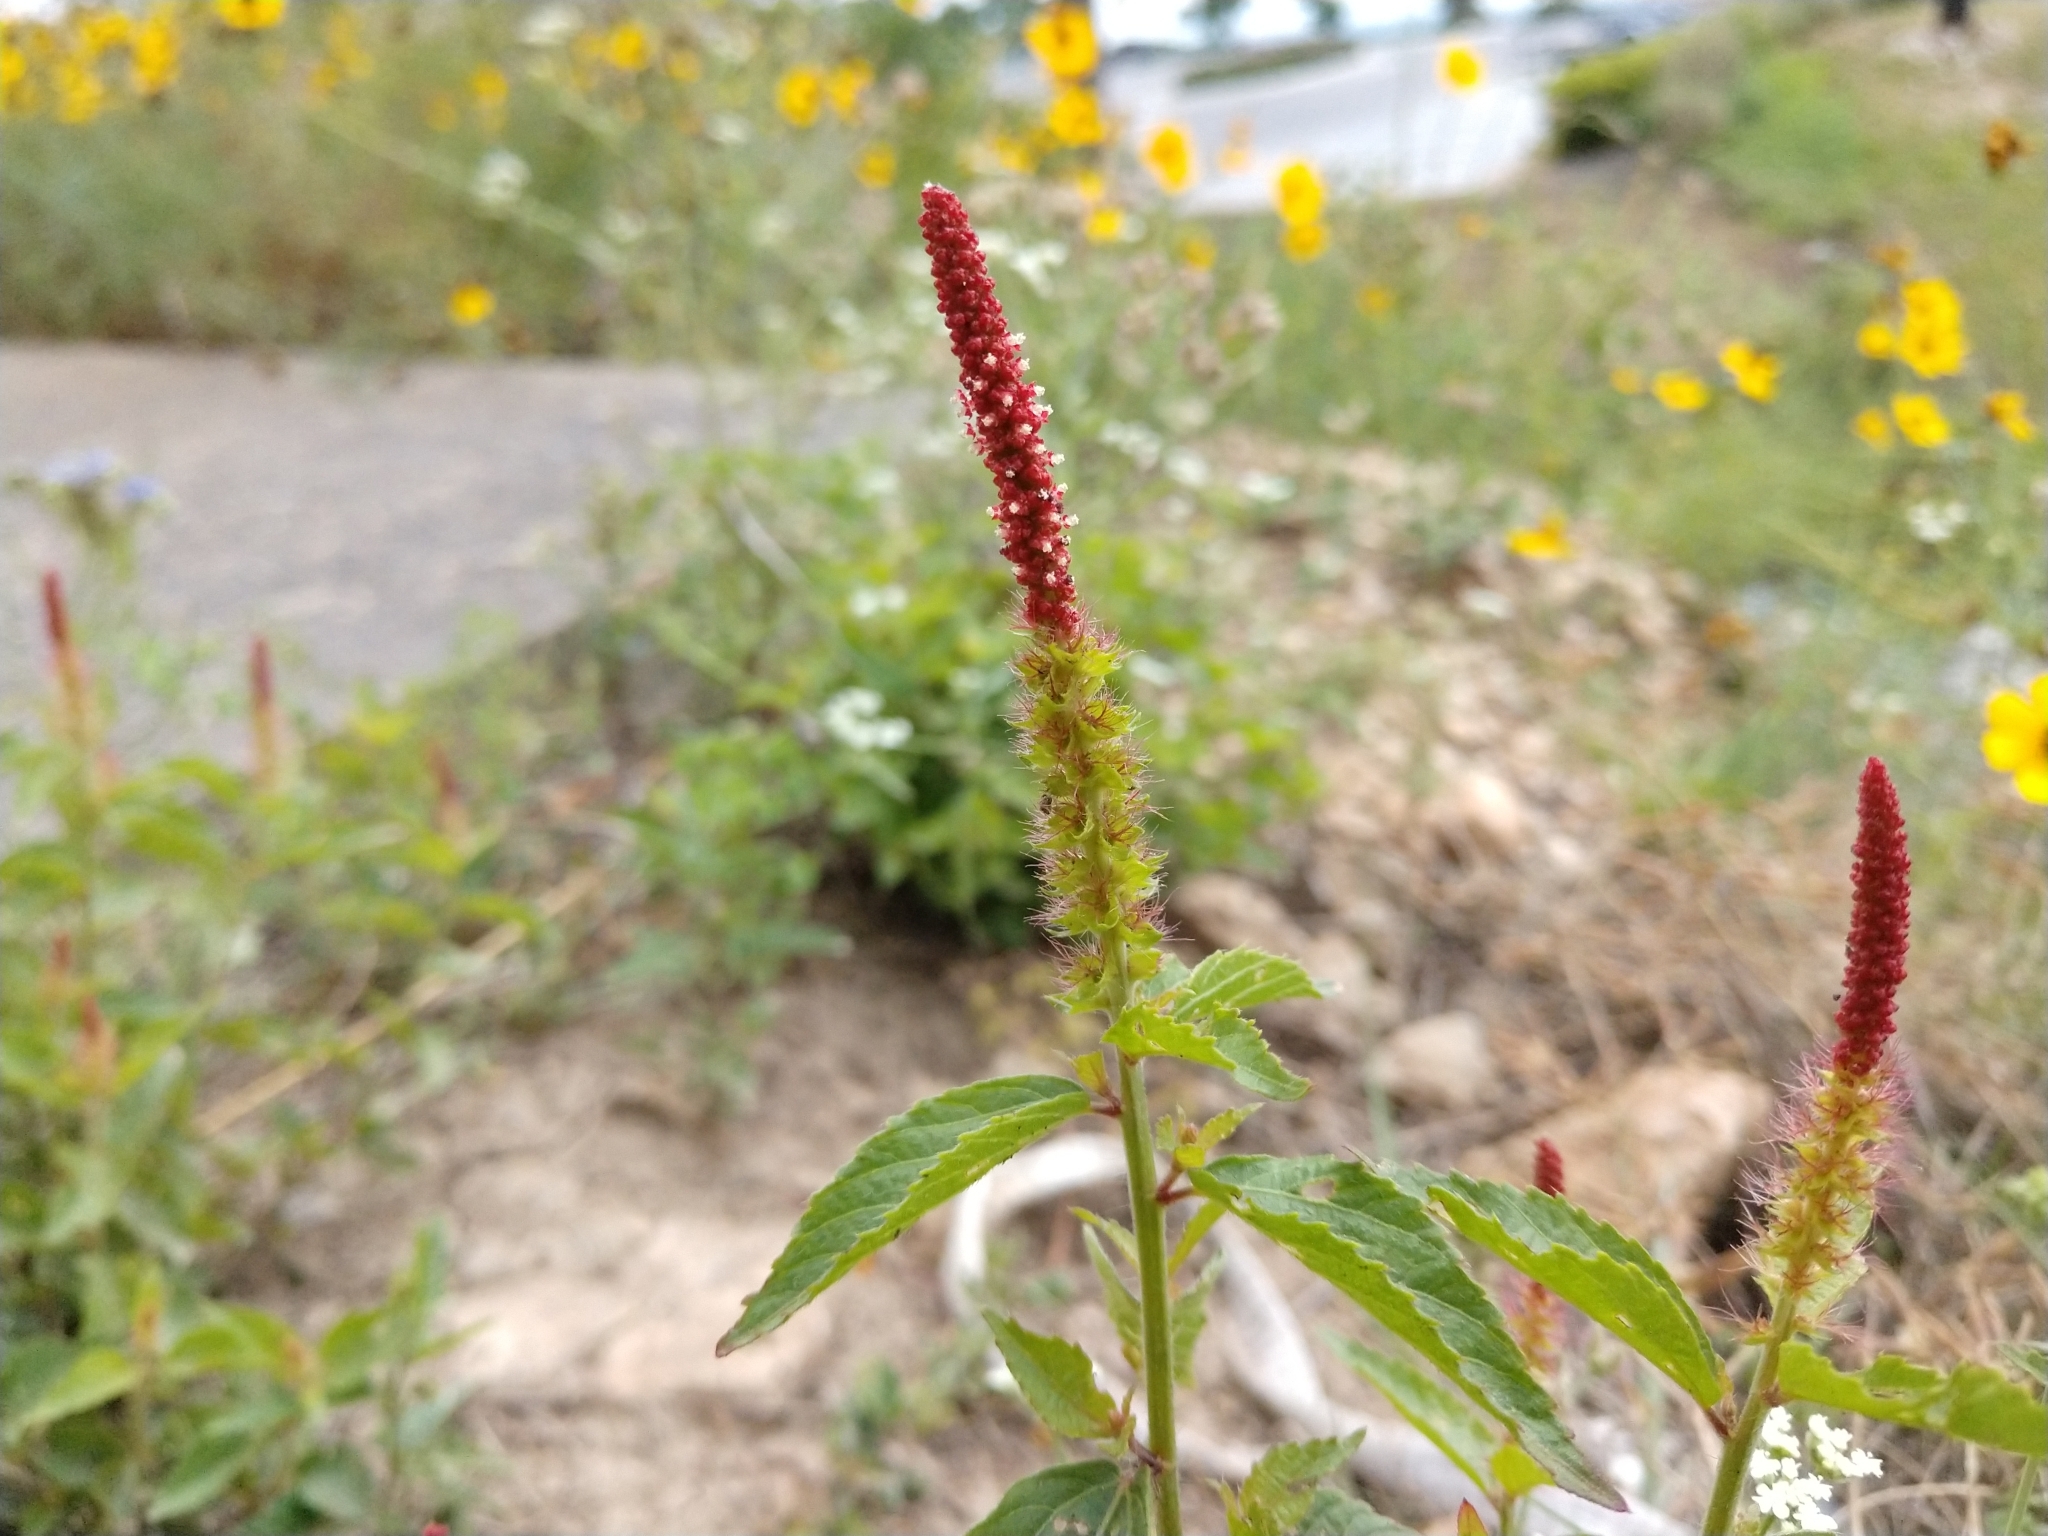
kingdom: Plantae
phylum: Tracheophyta
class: Magnoliopsida
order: Malpighiales
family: Euphorbiaceae
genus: Acalypha
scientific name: Acalypha phleoides
